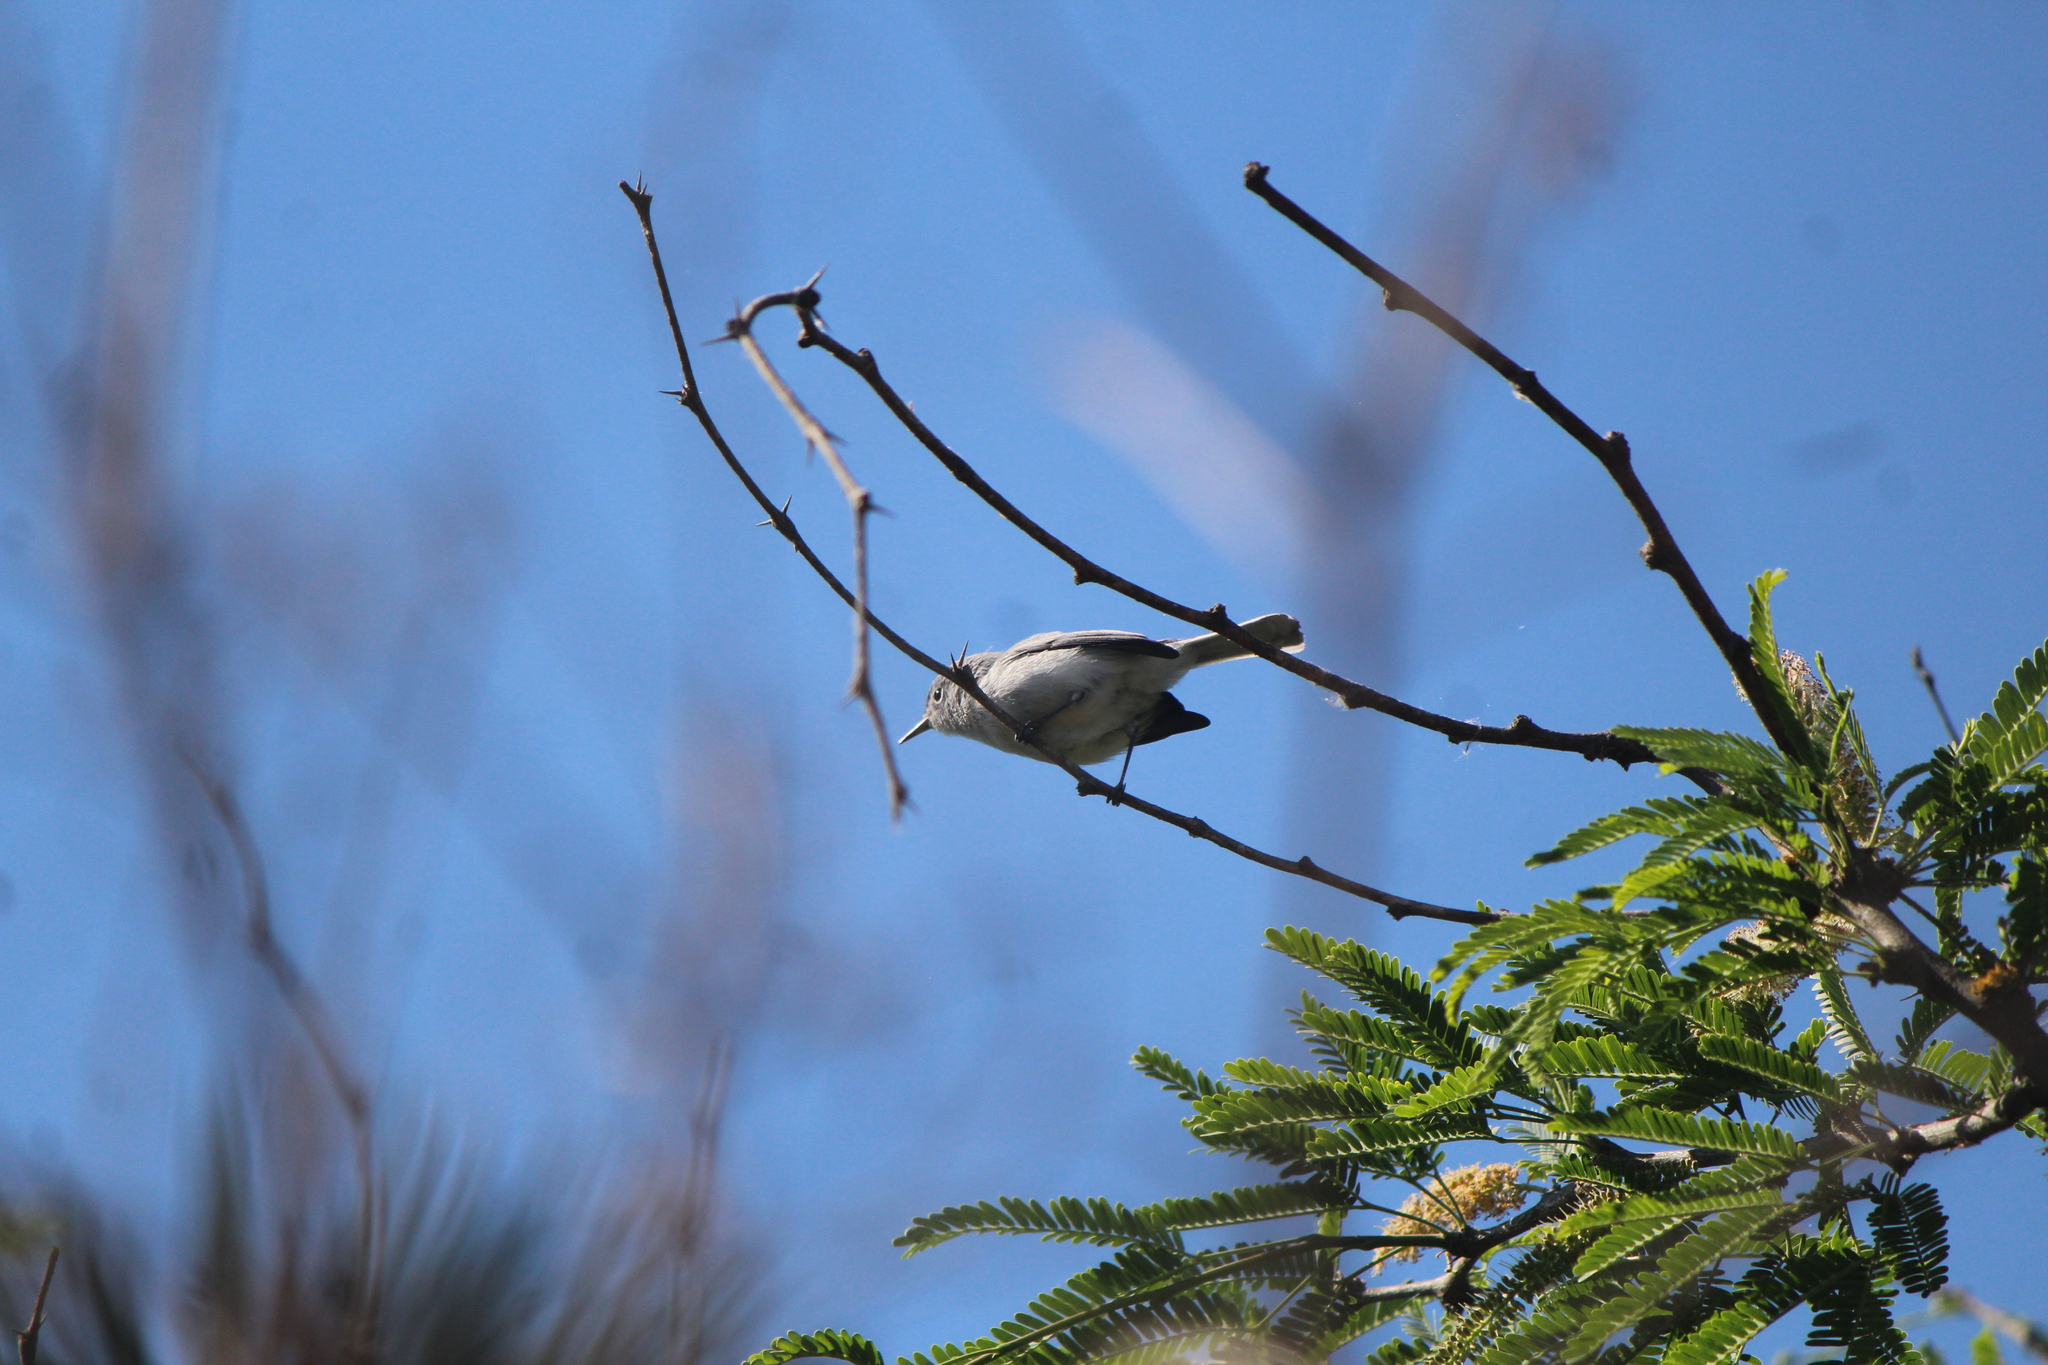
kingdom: Animalia
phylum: Chordata
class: Aves
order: Passeriformes
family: Polioptilidae
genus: Polioptila
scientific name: Polioptila caerulea
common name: Blue-gray gnatcatcher
